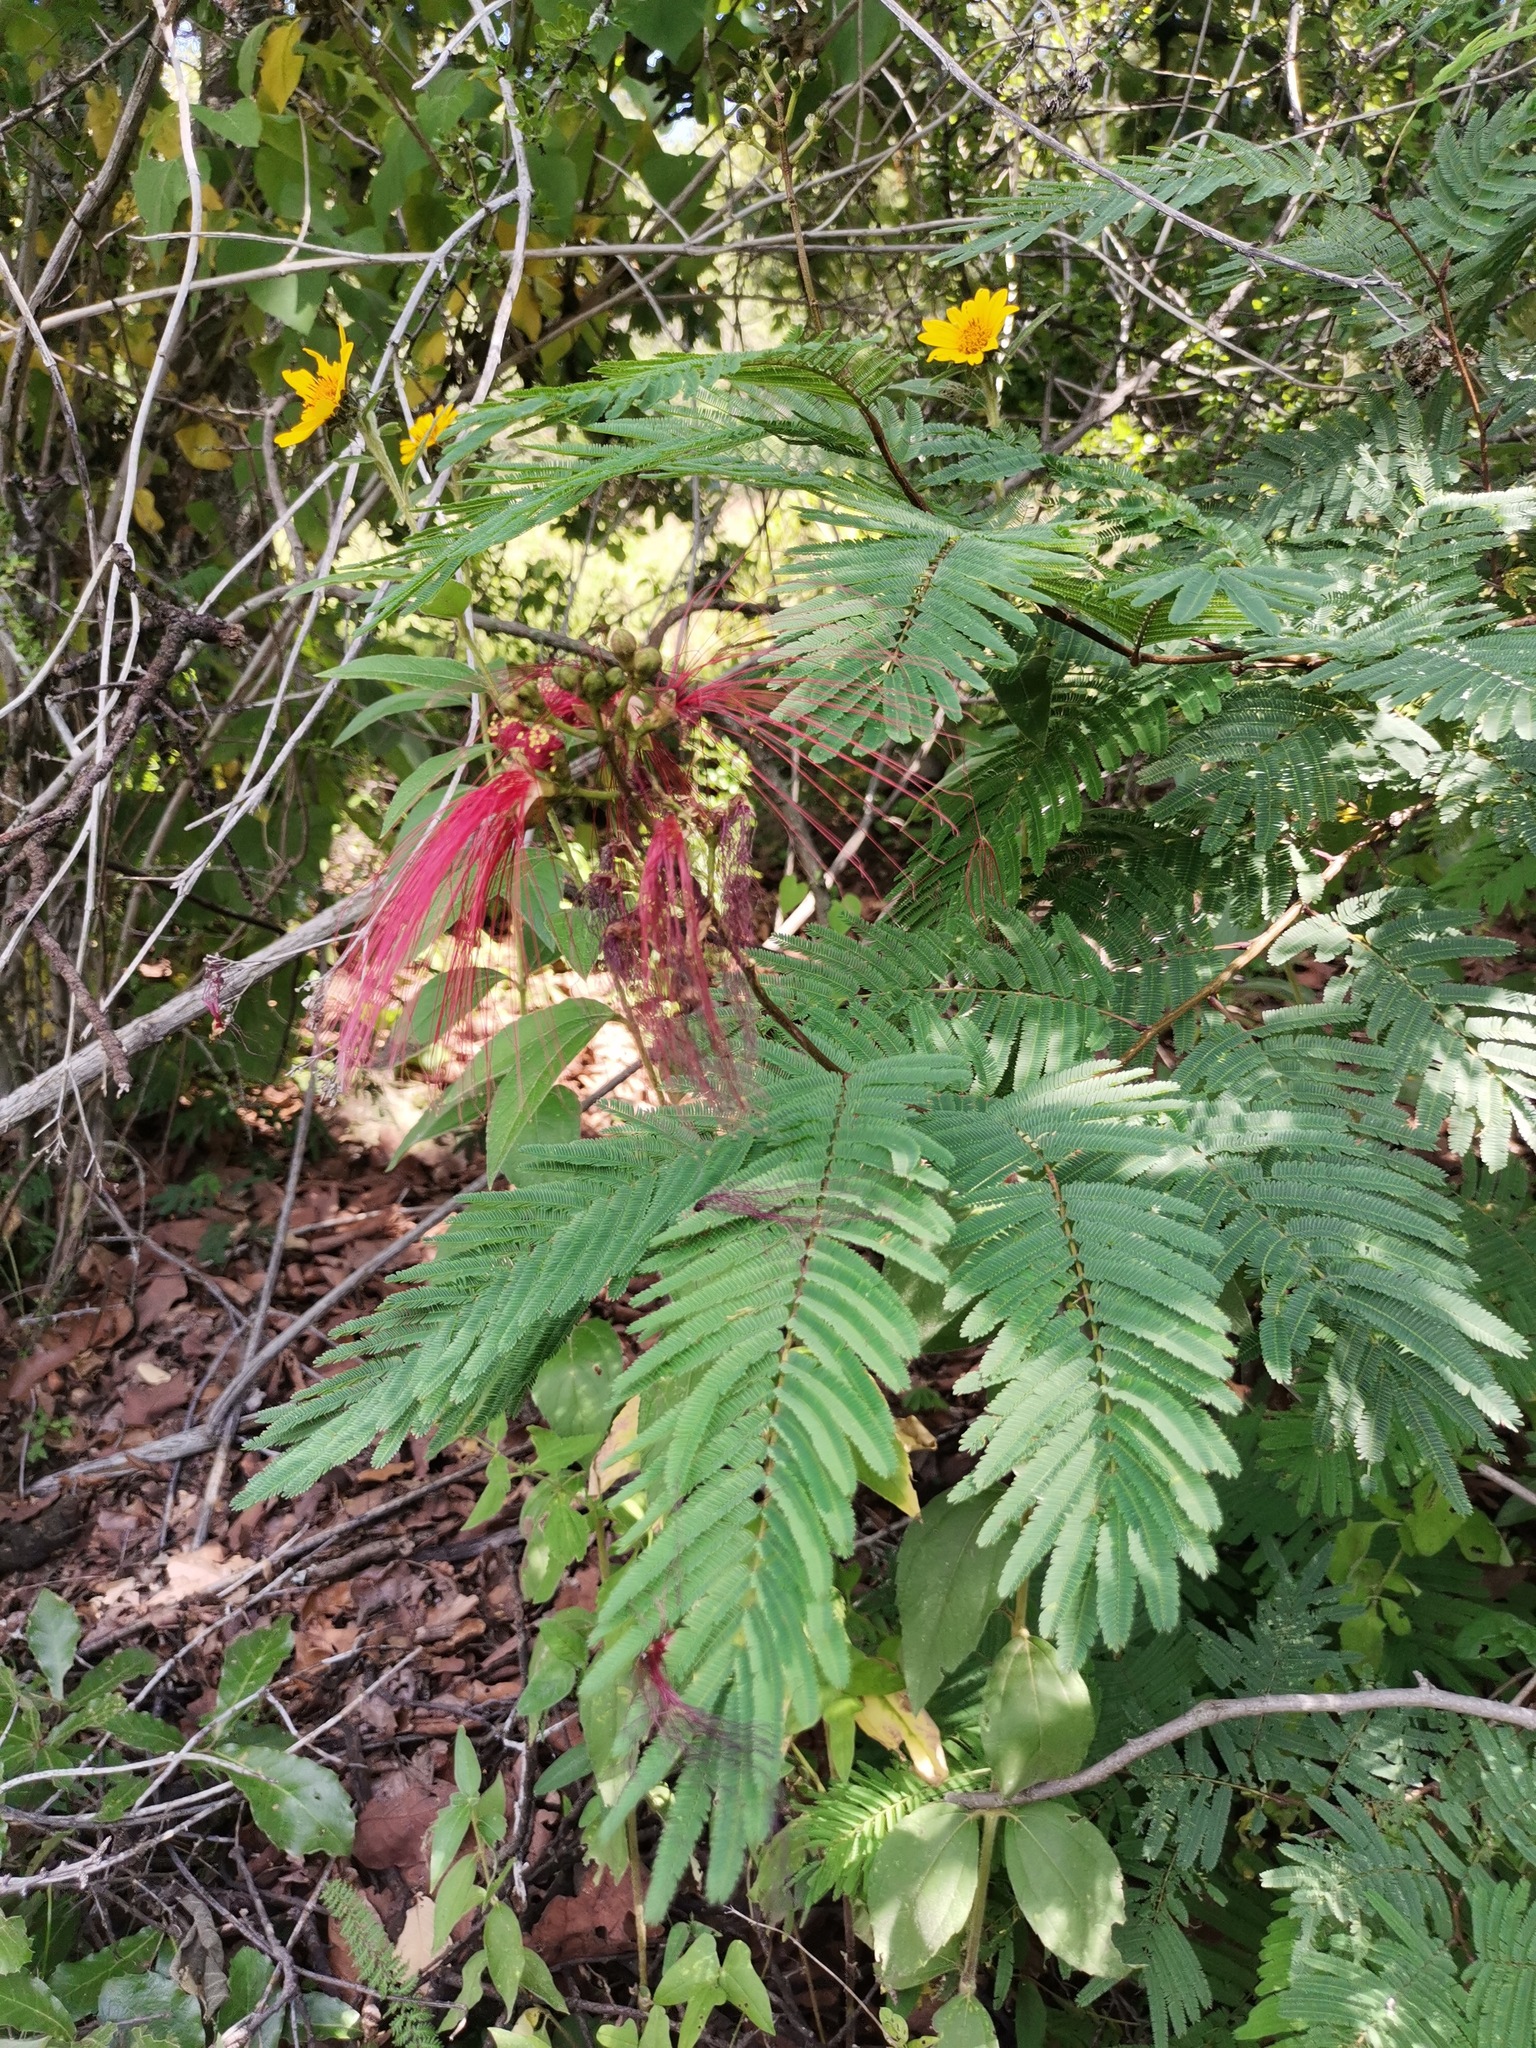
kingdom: Plantae
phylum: Tracheophyta
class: Magnoliopsida
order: Fabales
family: Fabaceae
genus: Calliandra
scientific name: Calliandra houstoniana
